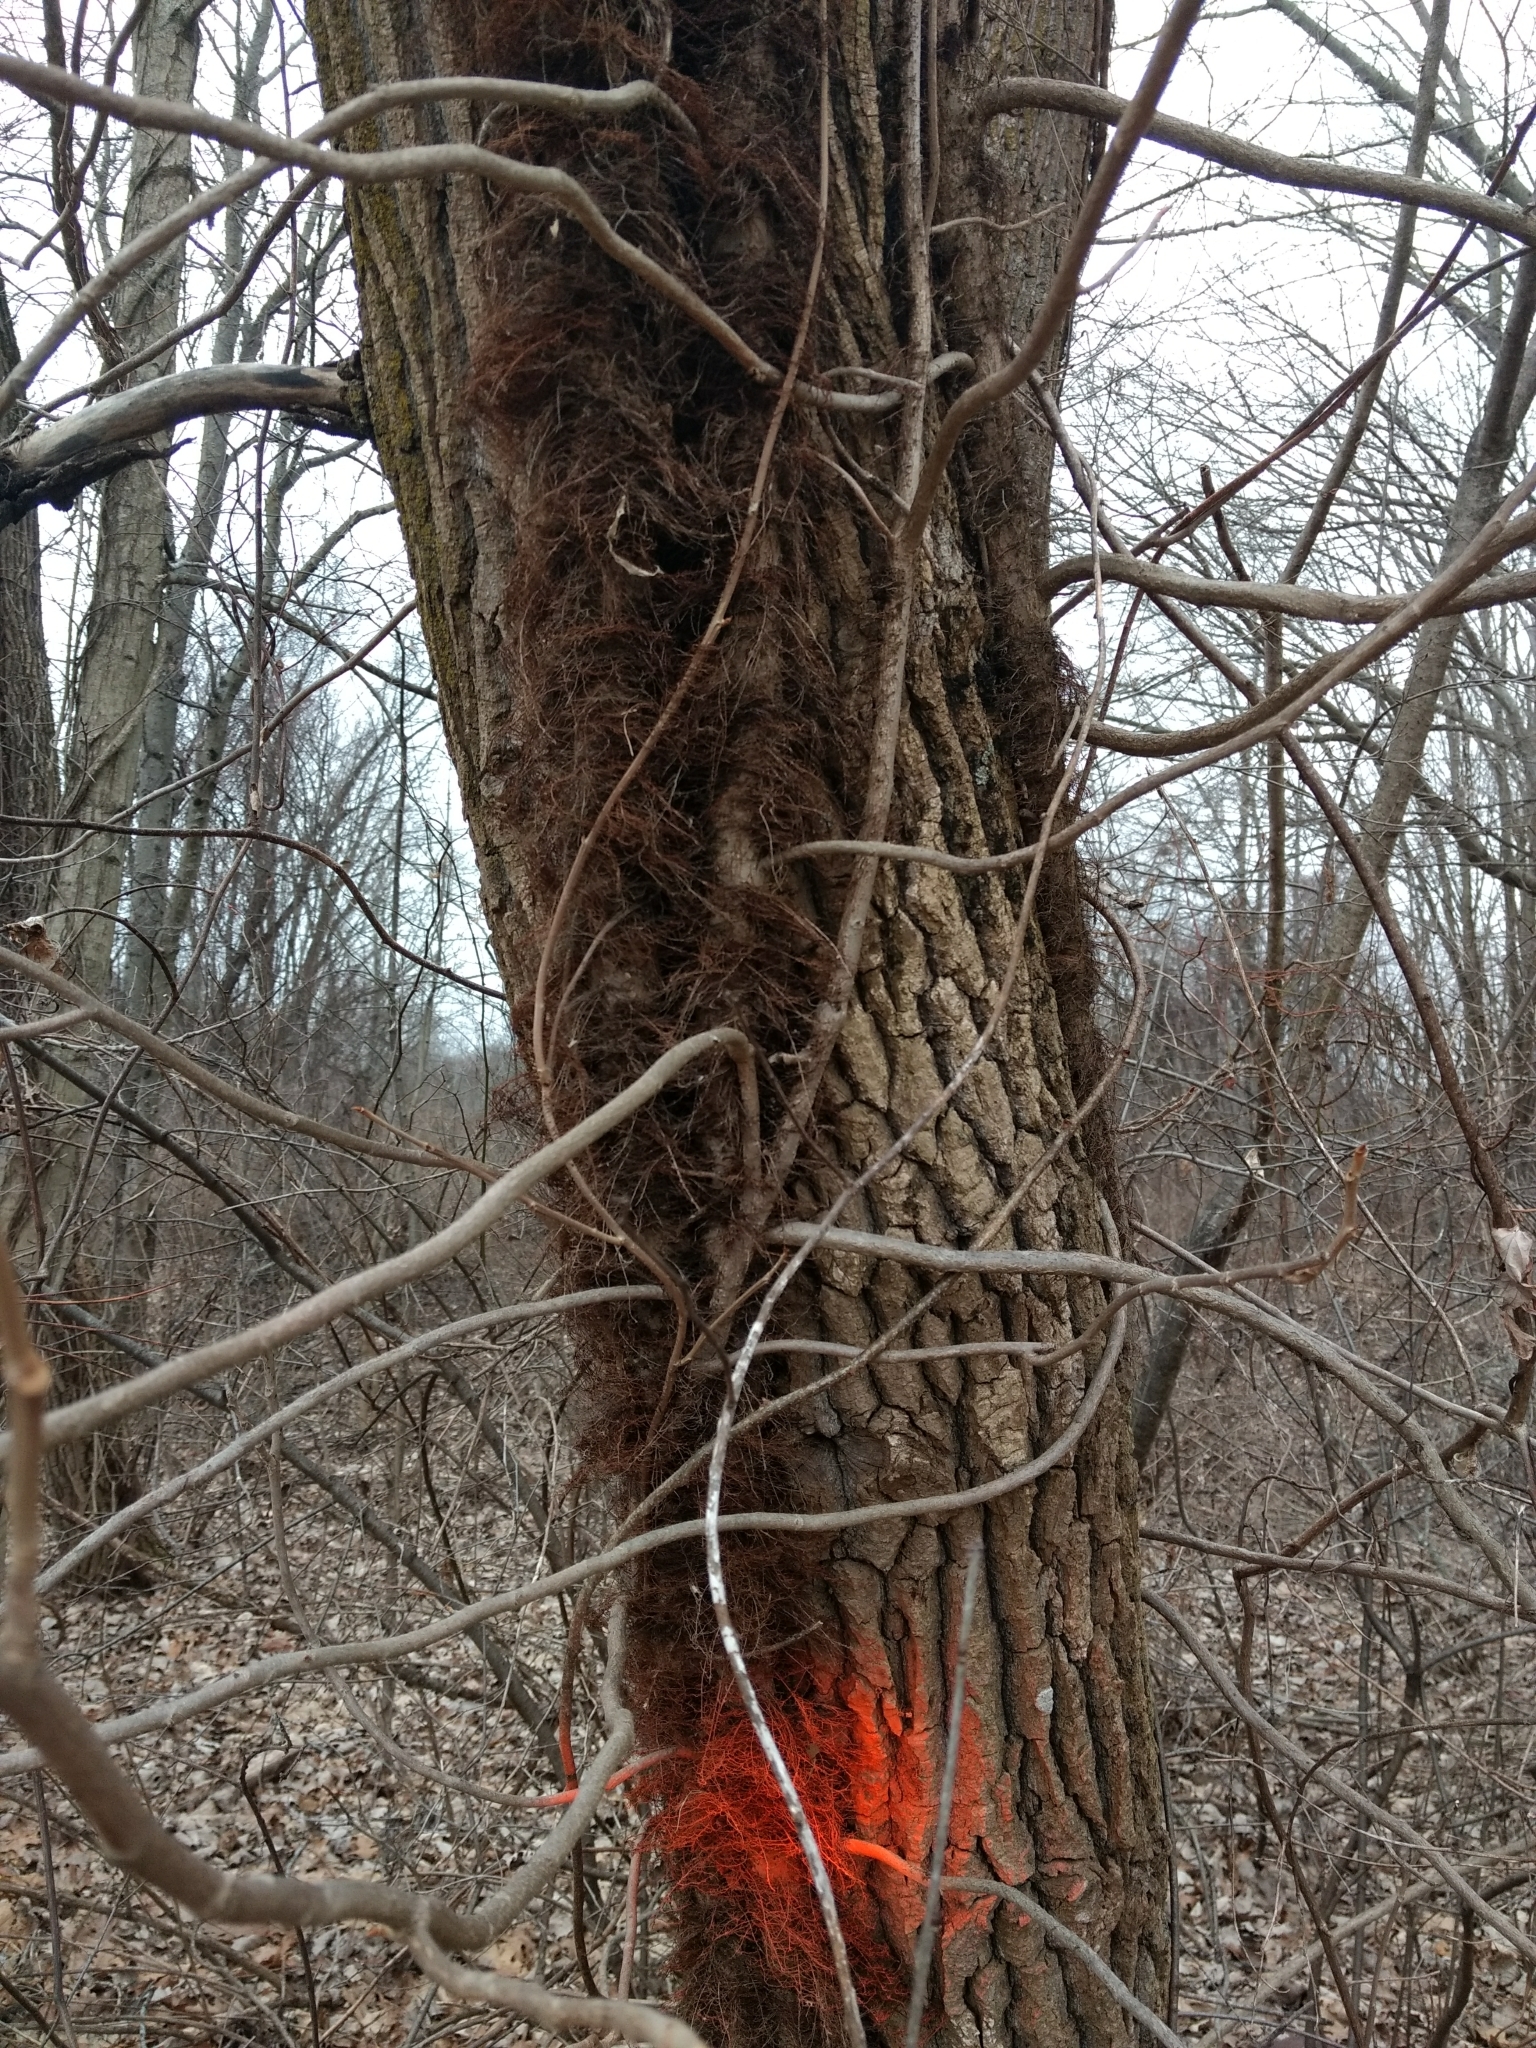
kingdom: Plantae
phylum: Tracheophyta
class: Magnoliopsida
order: Sapindales
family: Anacardiaceae
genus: Toxicodendron
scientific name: Toxicodendron radicans
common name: Poison ivy
